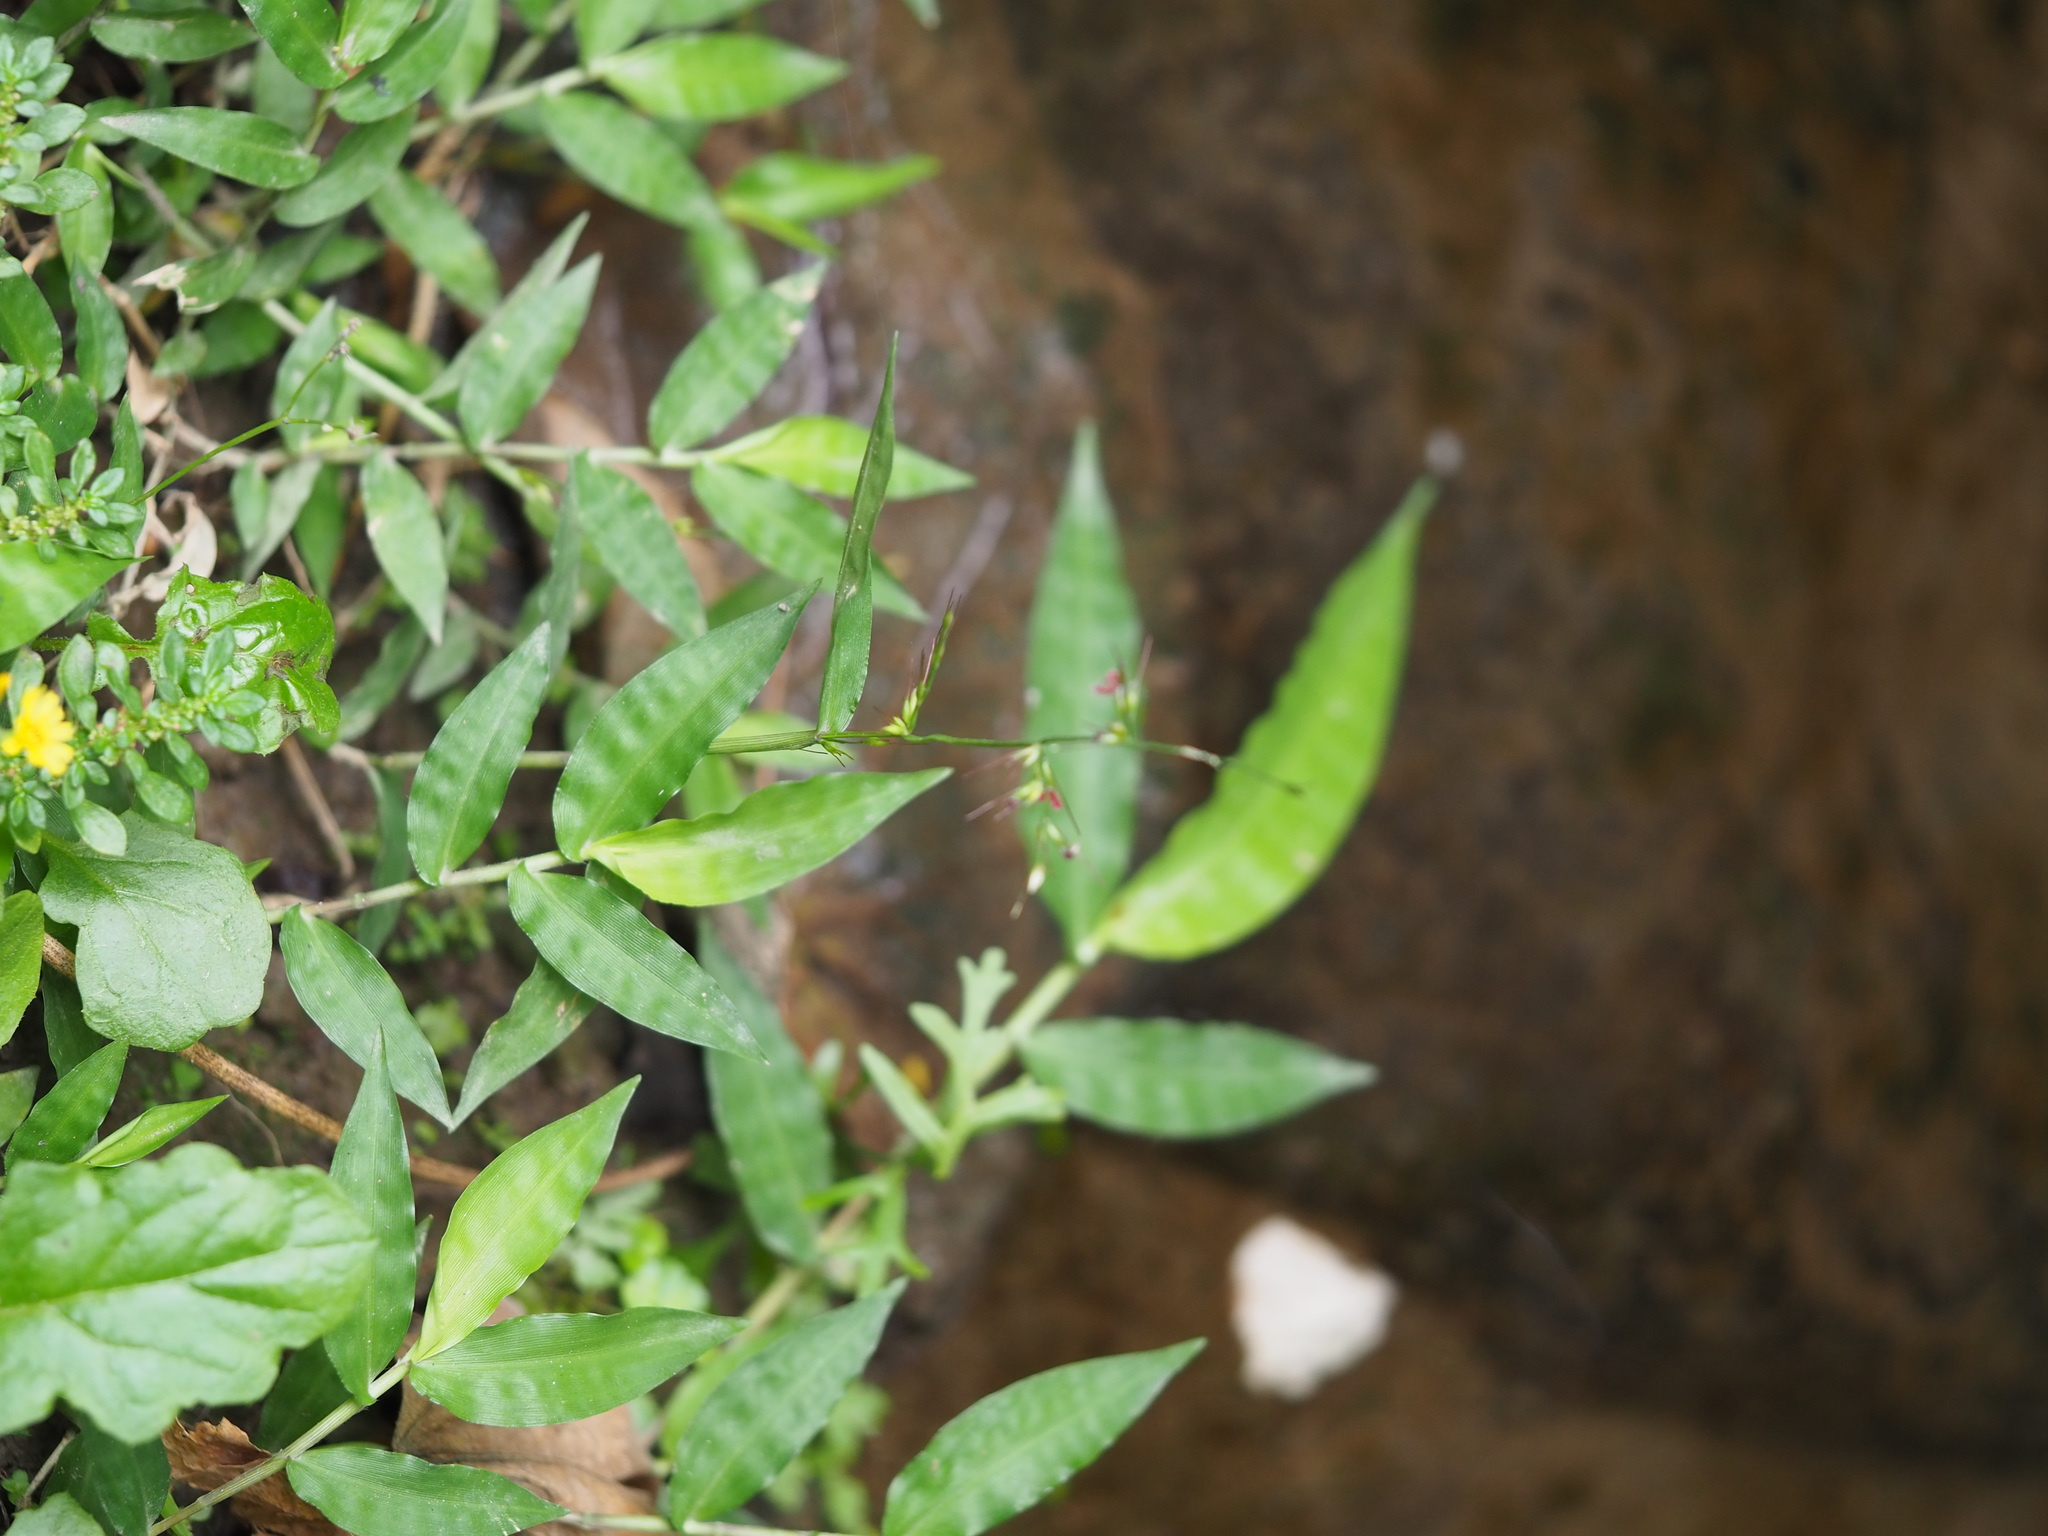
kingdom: Plantae
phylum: Tracheophyta
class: Liliopsida
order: Poales
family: Poaceae
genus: Oplismenus
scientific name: Oplismenus compositus
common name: Running mountain grass
